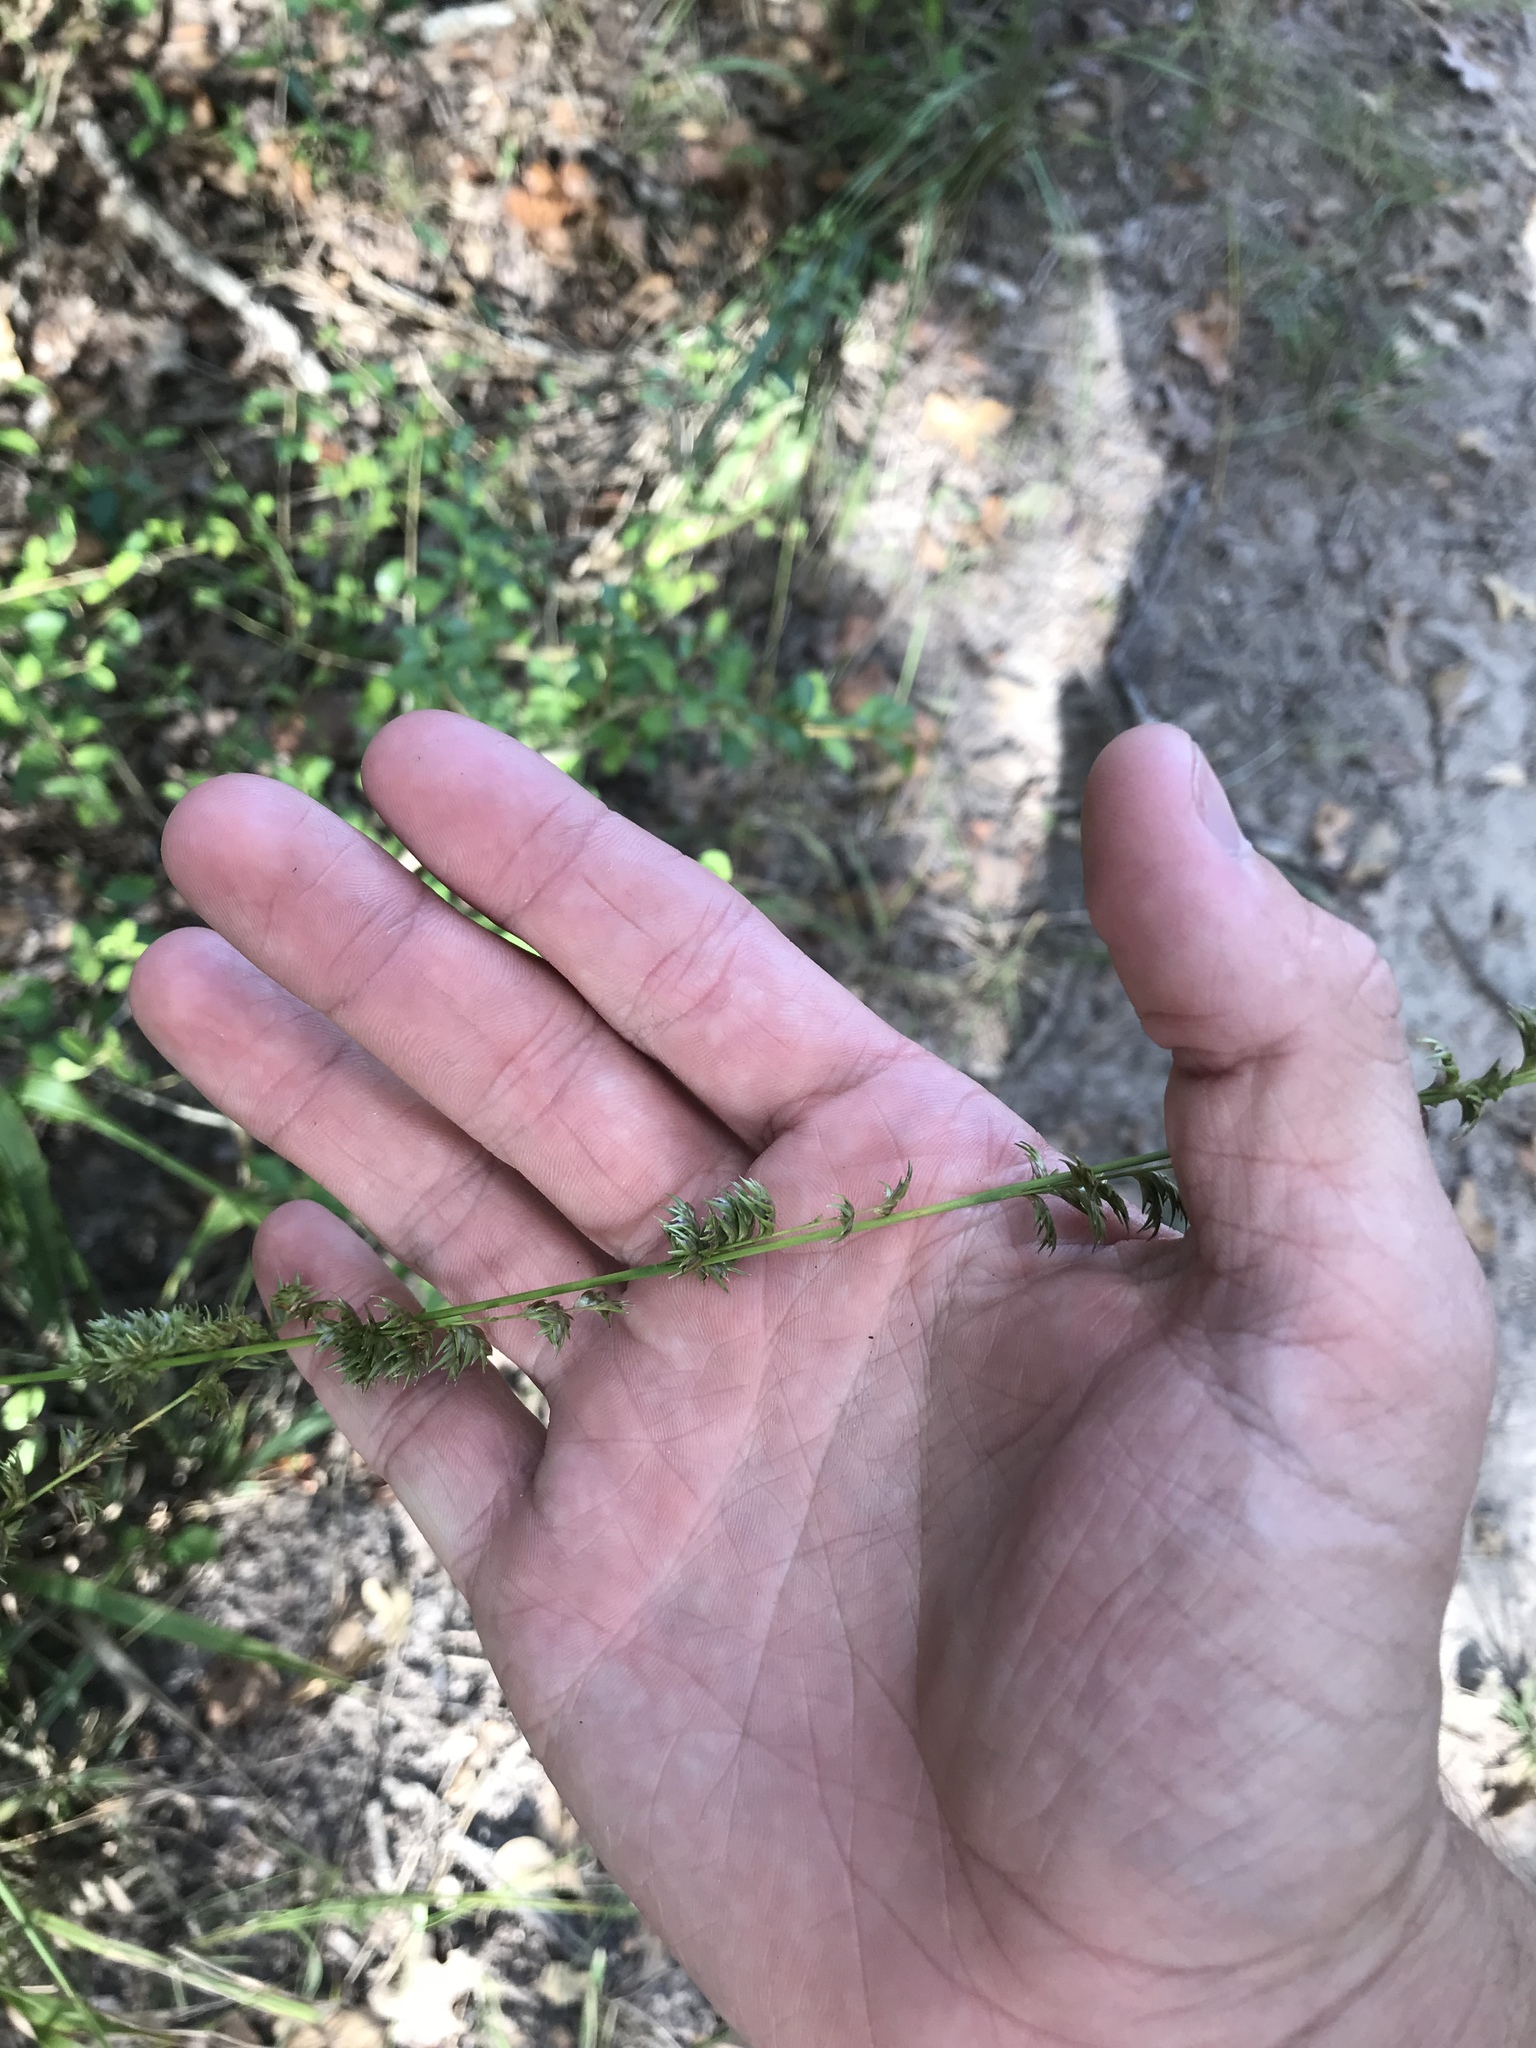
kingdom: Plantae
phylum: Tracheophyta
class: Liliopsida
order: Poales
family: Poaceae
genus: Chasmanthium
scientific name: Chasmanthium laxum
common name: Slender chasmanthium
